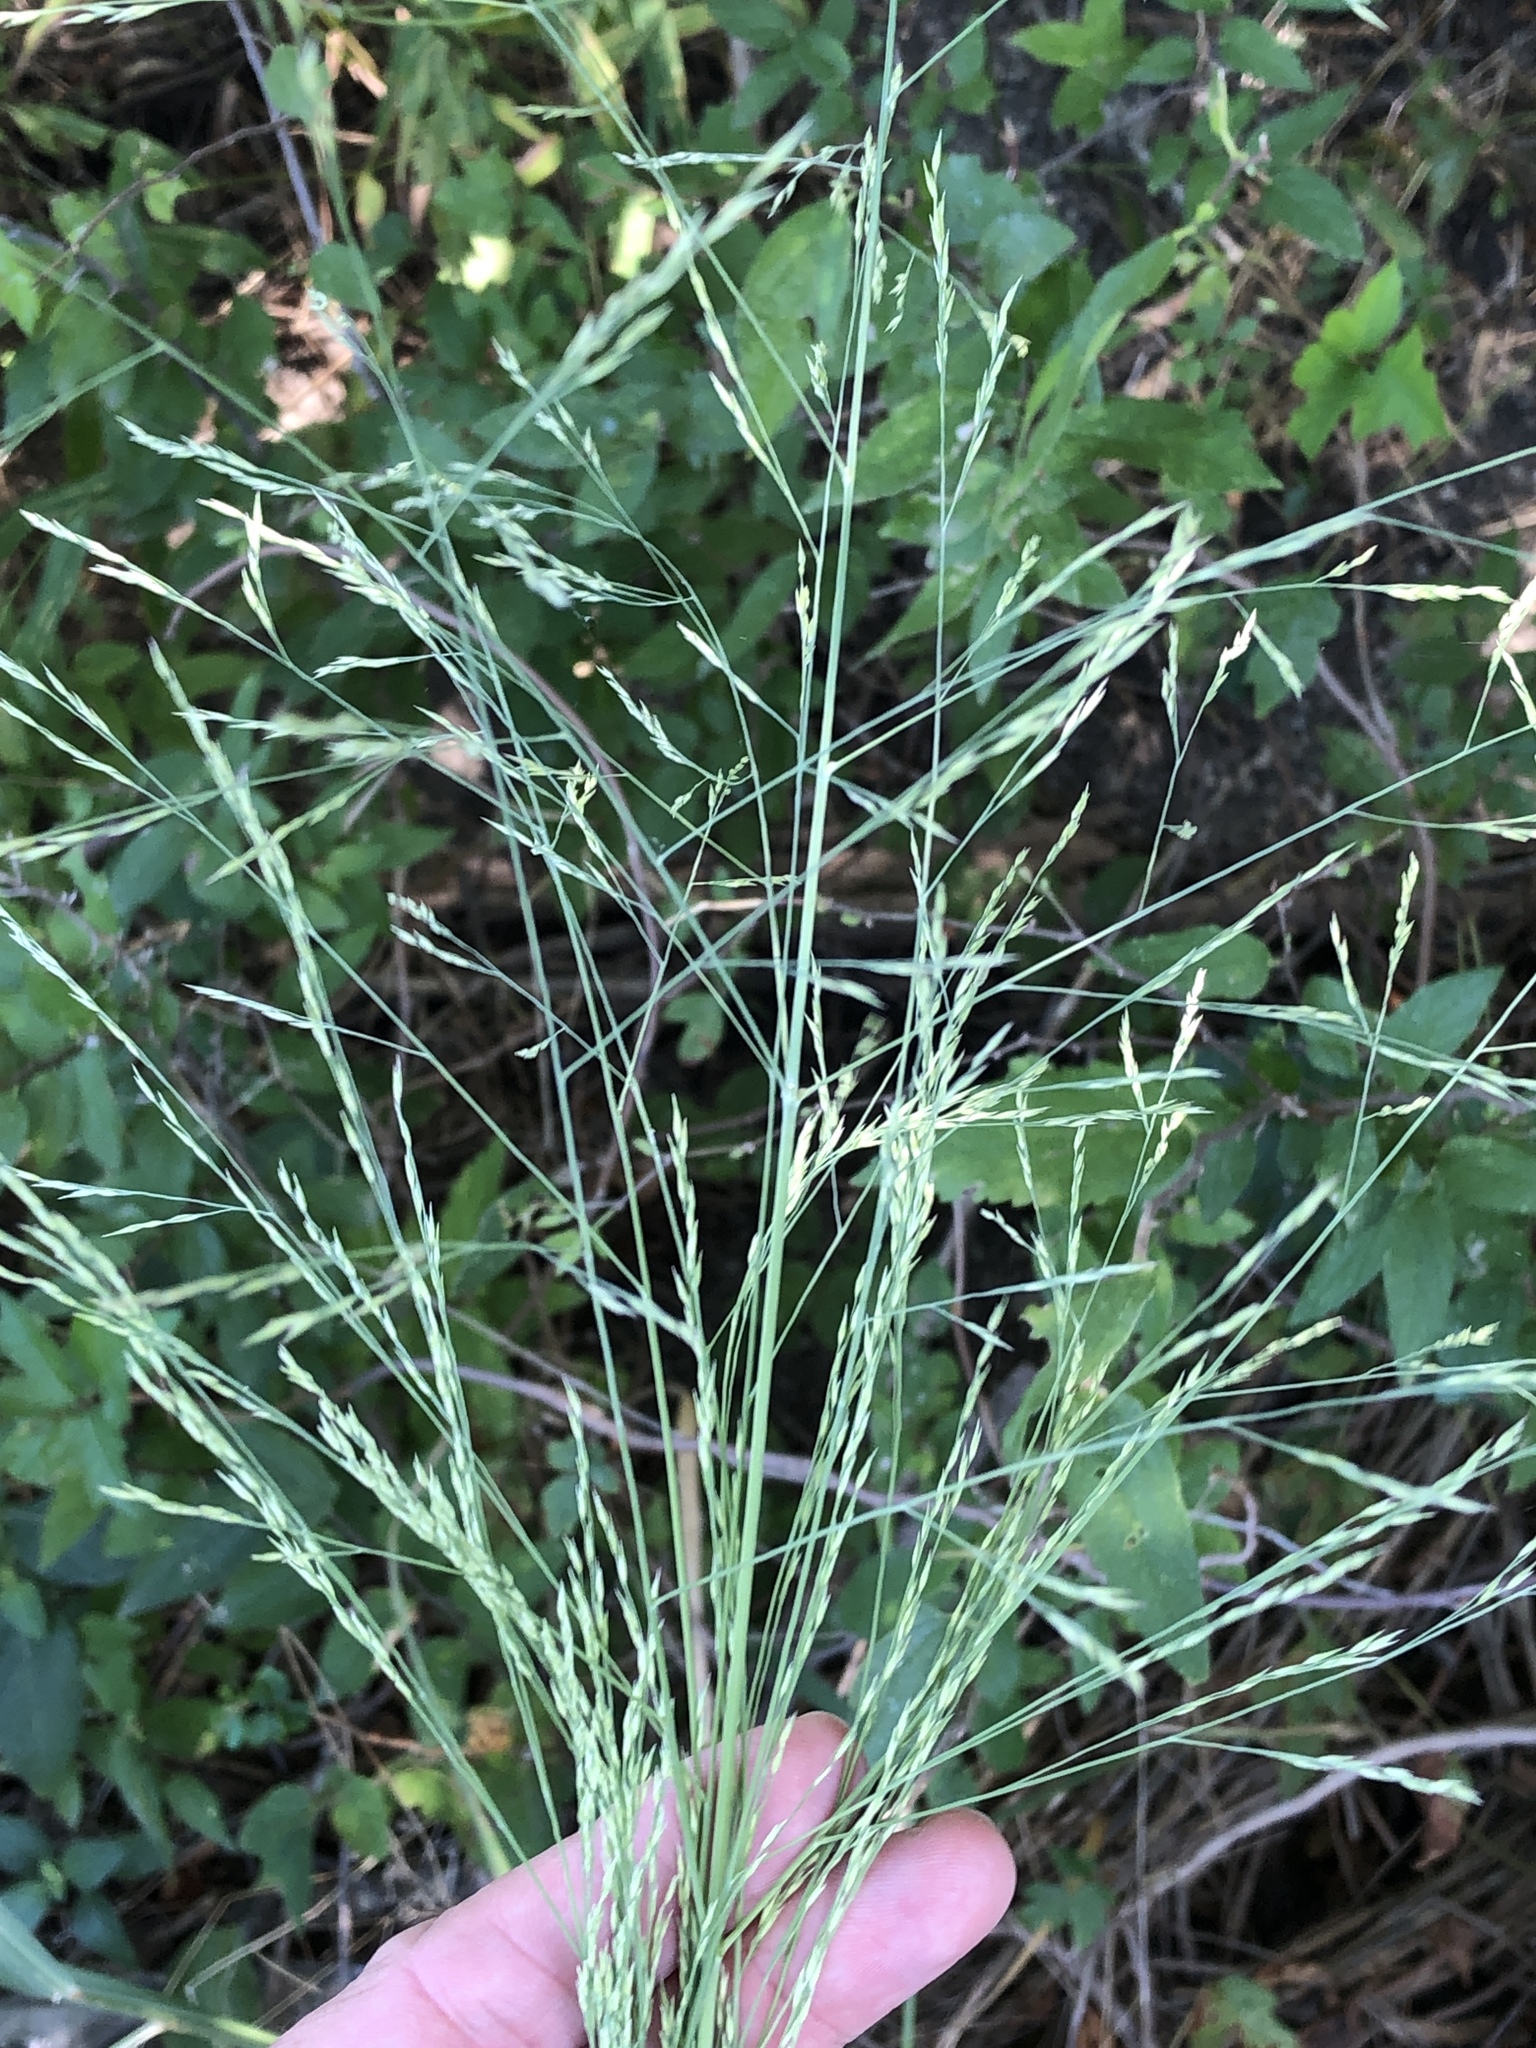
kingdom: Plantae
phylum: Tracheophyta
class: Liliopsida
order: Poales
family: Poaceae
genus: Panicum
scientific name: Panicum virgatum
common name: Switchgrass
